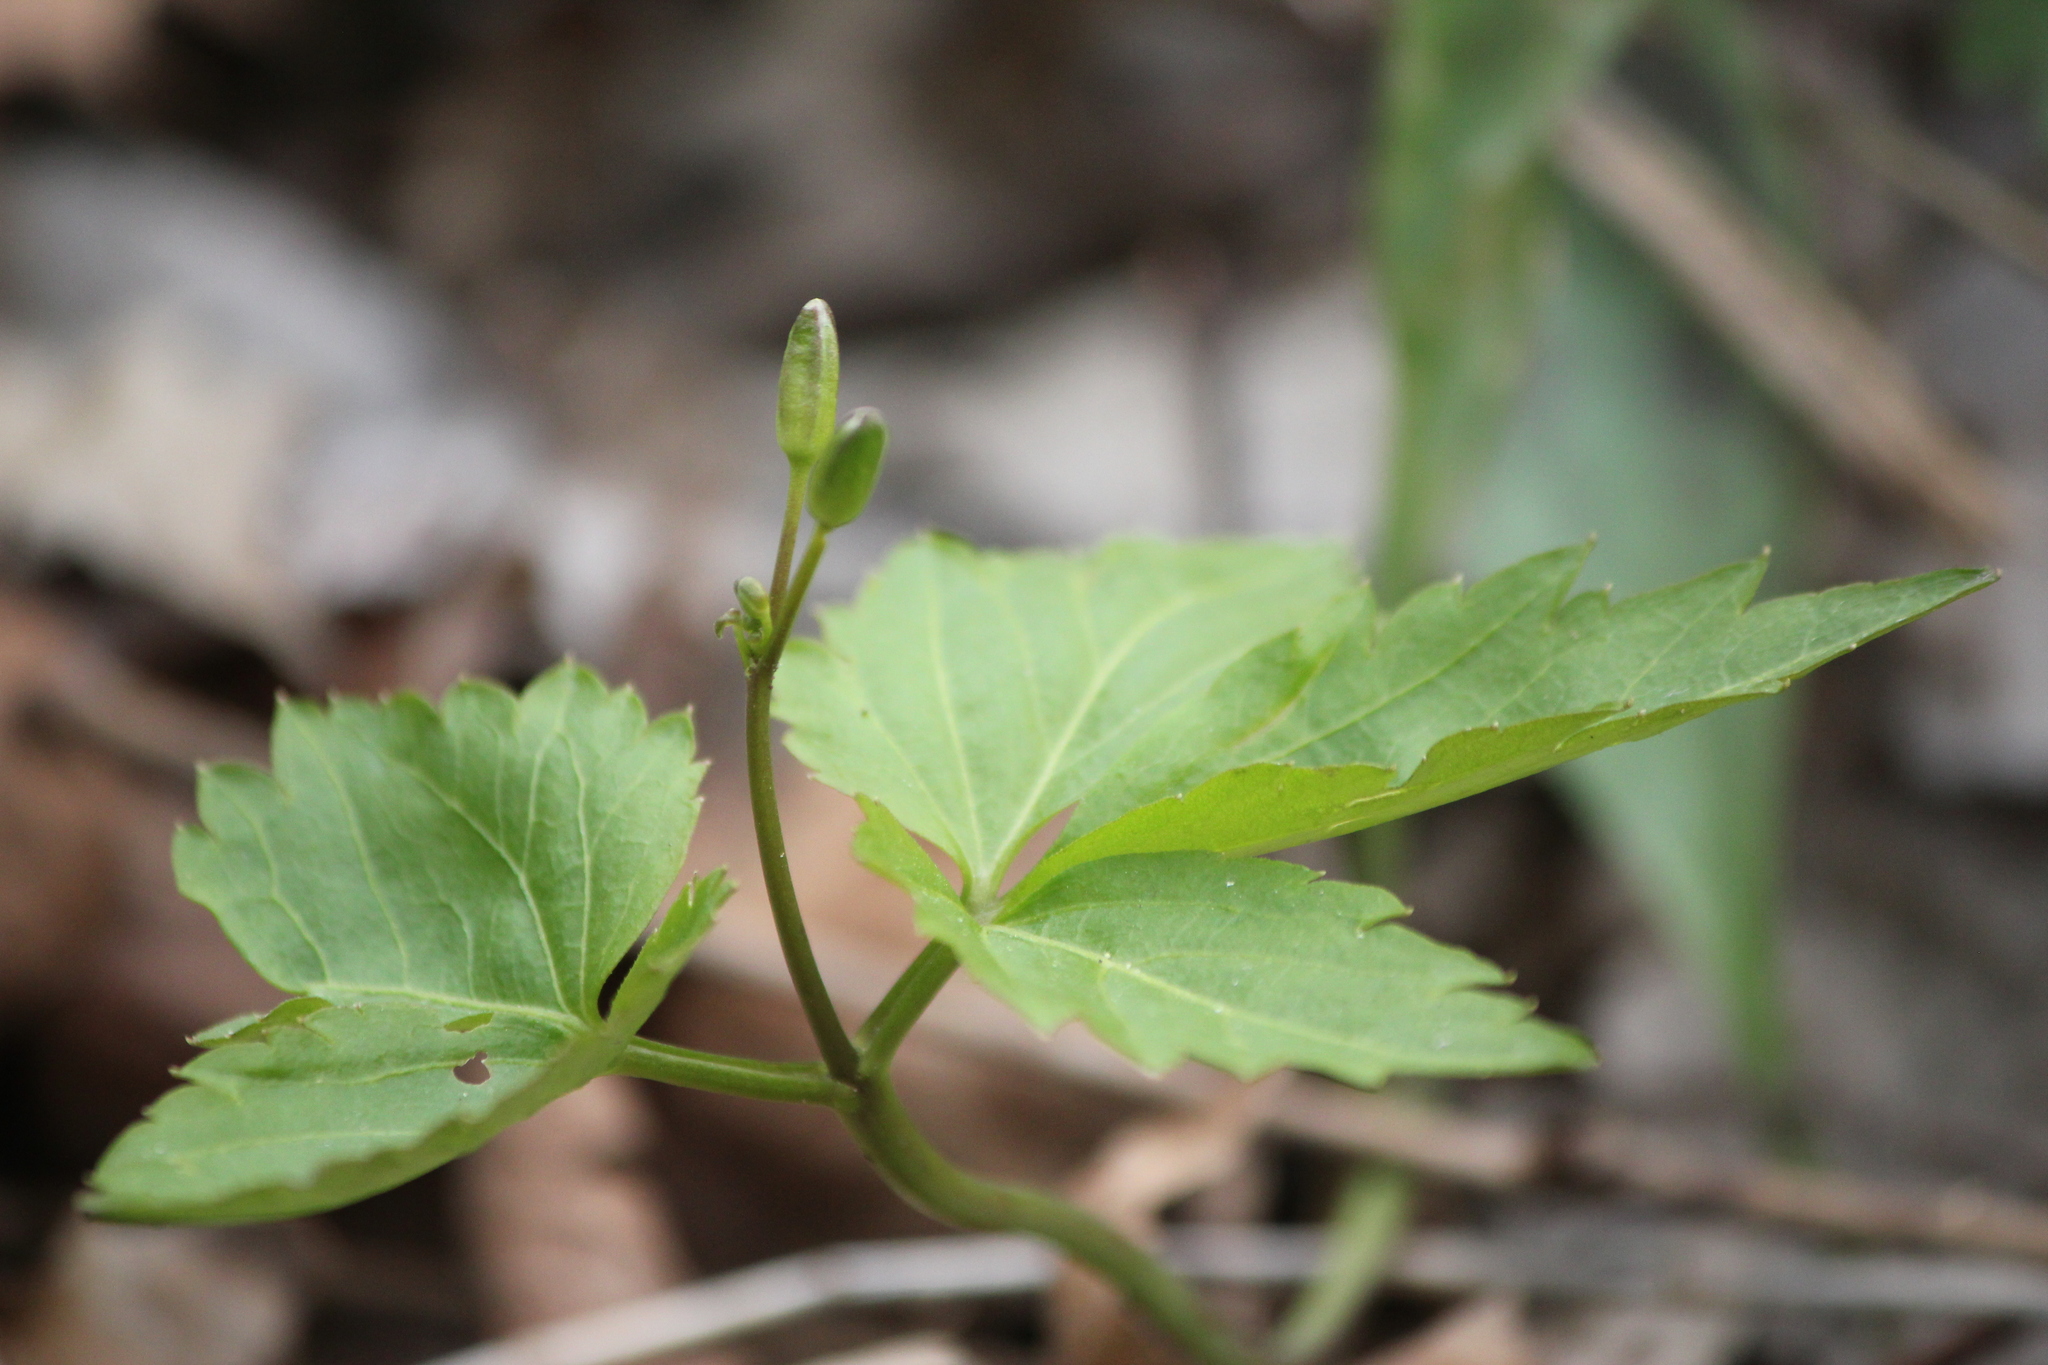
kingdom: Plantae
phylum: Tracheophyta
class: Magnoliopsida
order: Brassicales
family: Brassicaceae
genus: Cardamine
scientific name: Cardamine diphylla
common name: Broad-leaved toothwort
